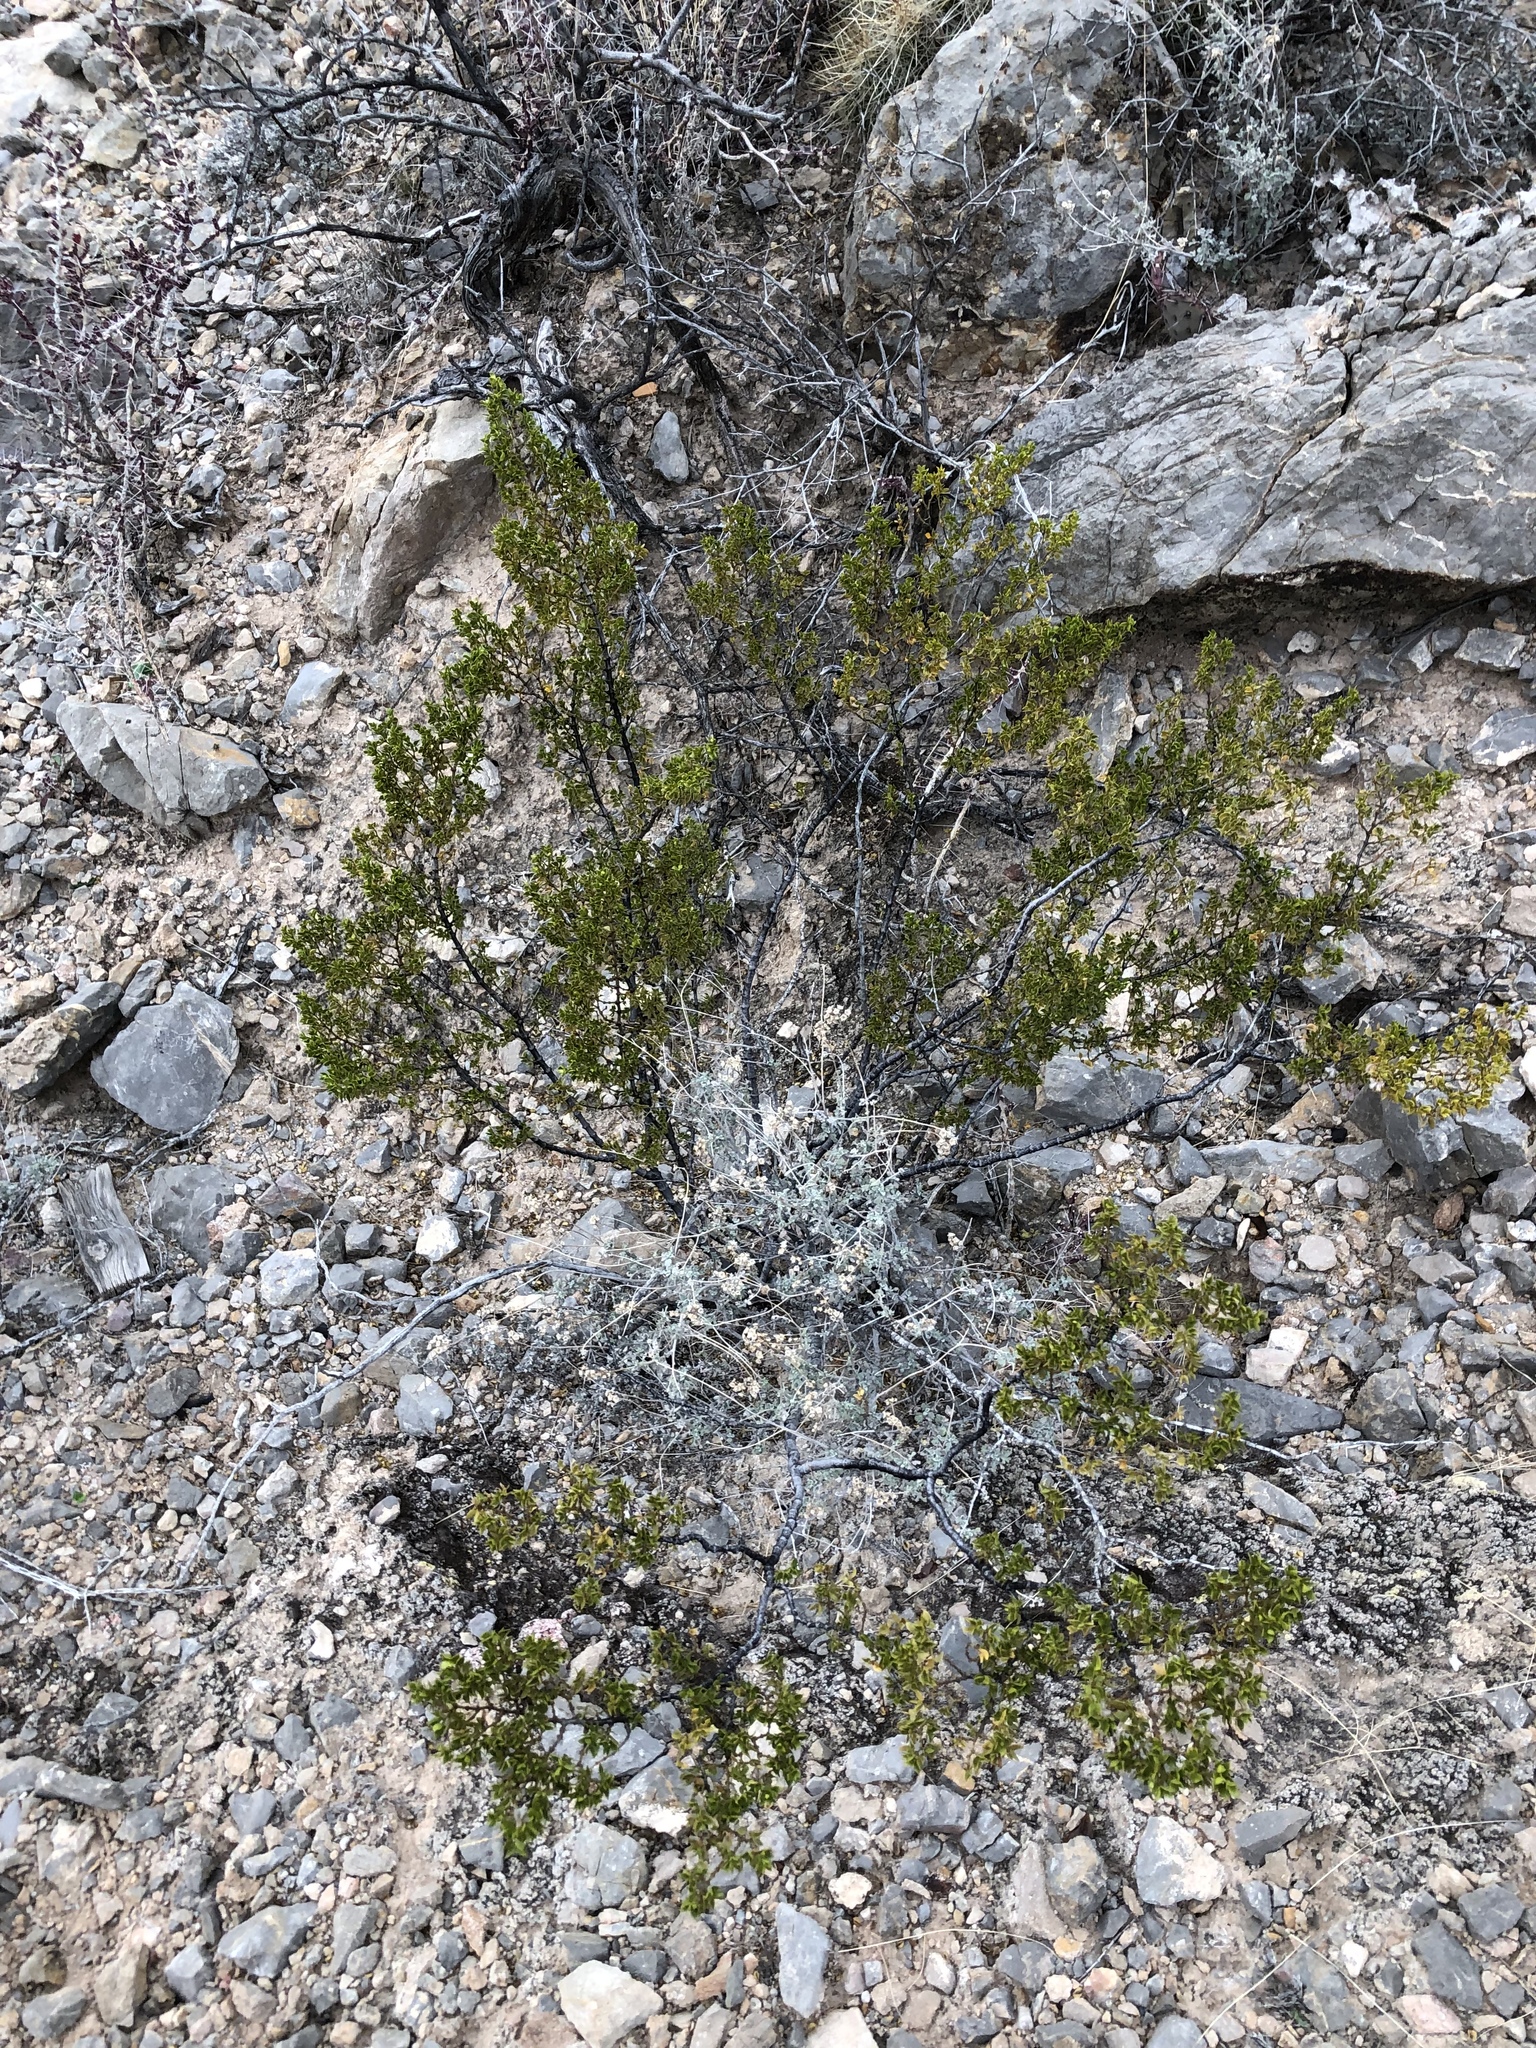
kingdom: Plantae
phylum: Tracheophyta
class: Magnoliopsida
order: Zygophyllales
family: Zygophyllaceae
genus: Larrea
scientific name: Larrea tridentata
